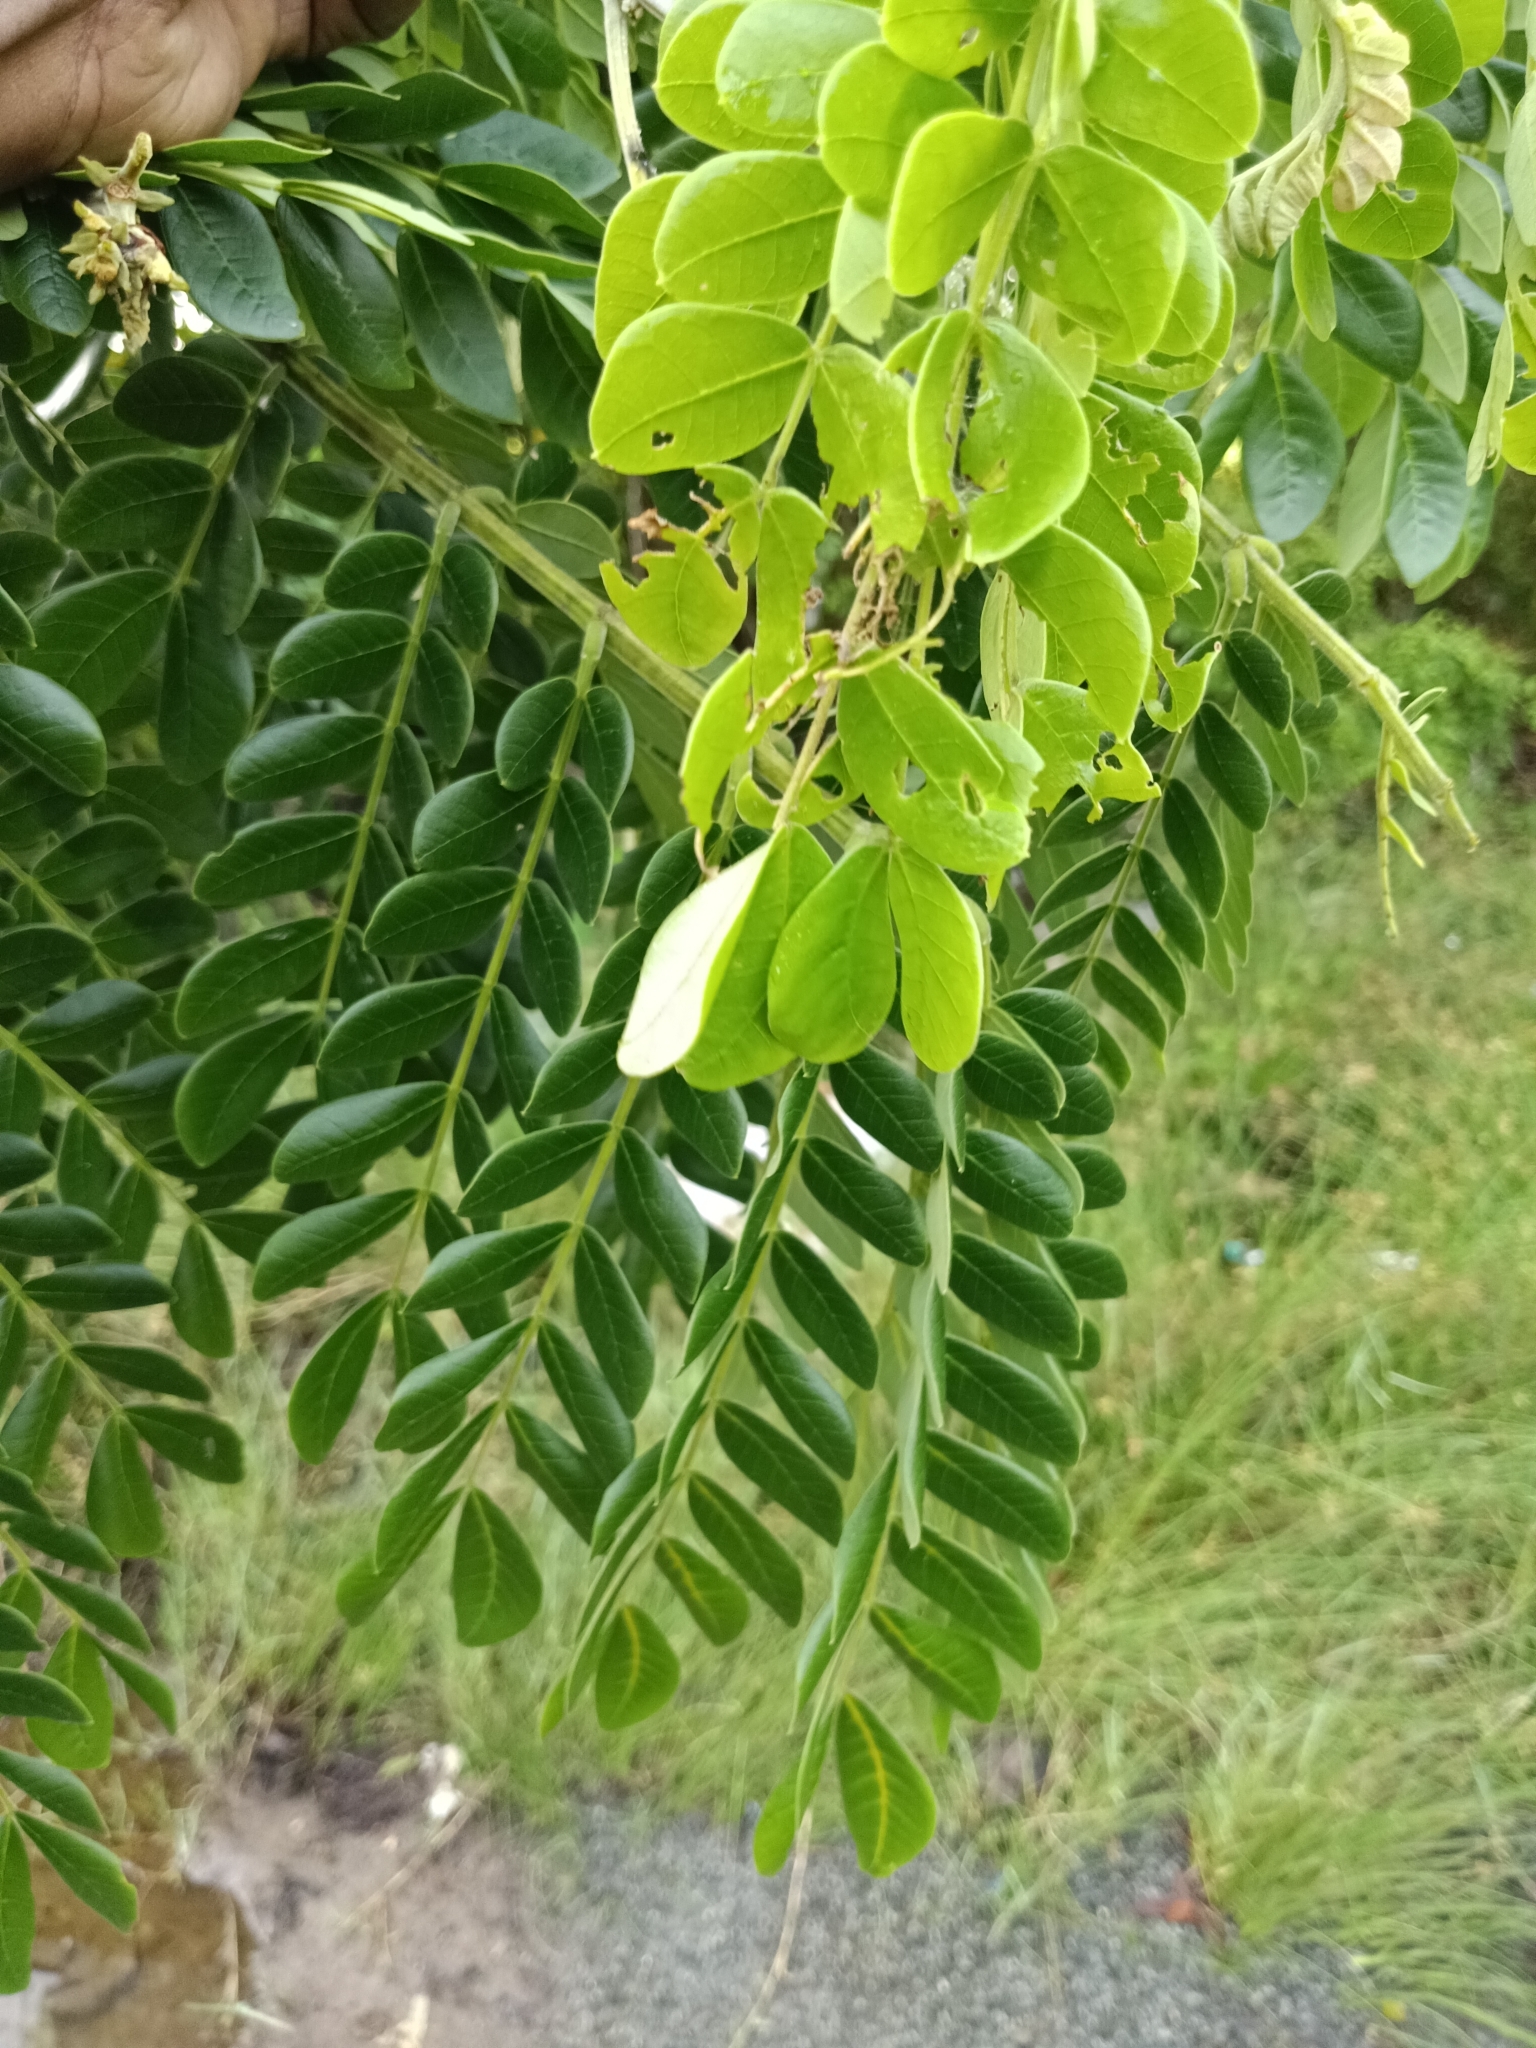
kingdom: Plantae
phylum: Tracheophyta
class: Magnoliopsida
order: Fabales
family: Fabaceae
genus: Samanea
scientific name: Samanea saman
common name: Raintree
